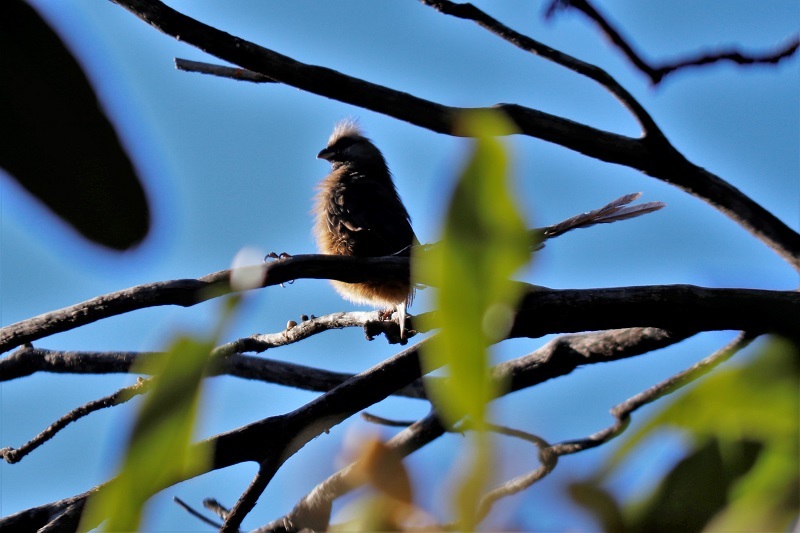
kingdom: Animalia
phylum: Chordata
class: Aves
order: Coliiformes
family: Coliidae
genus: Colius
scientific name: Colius striatus
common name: Speckled mousebird
